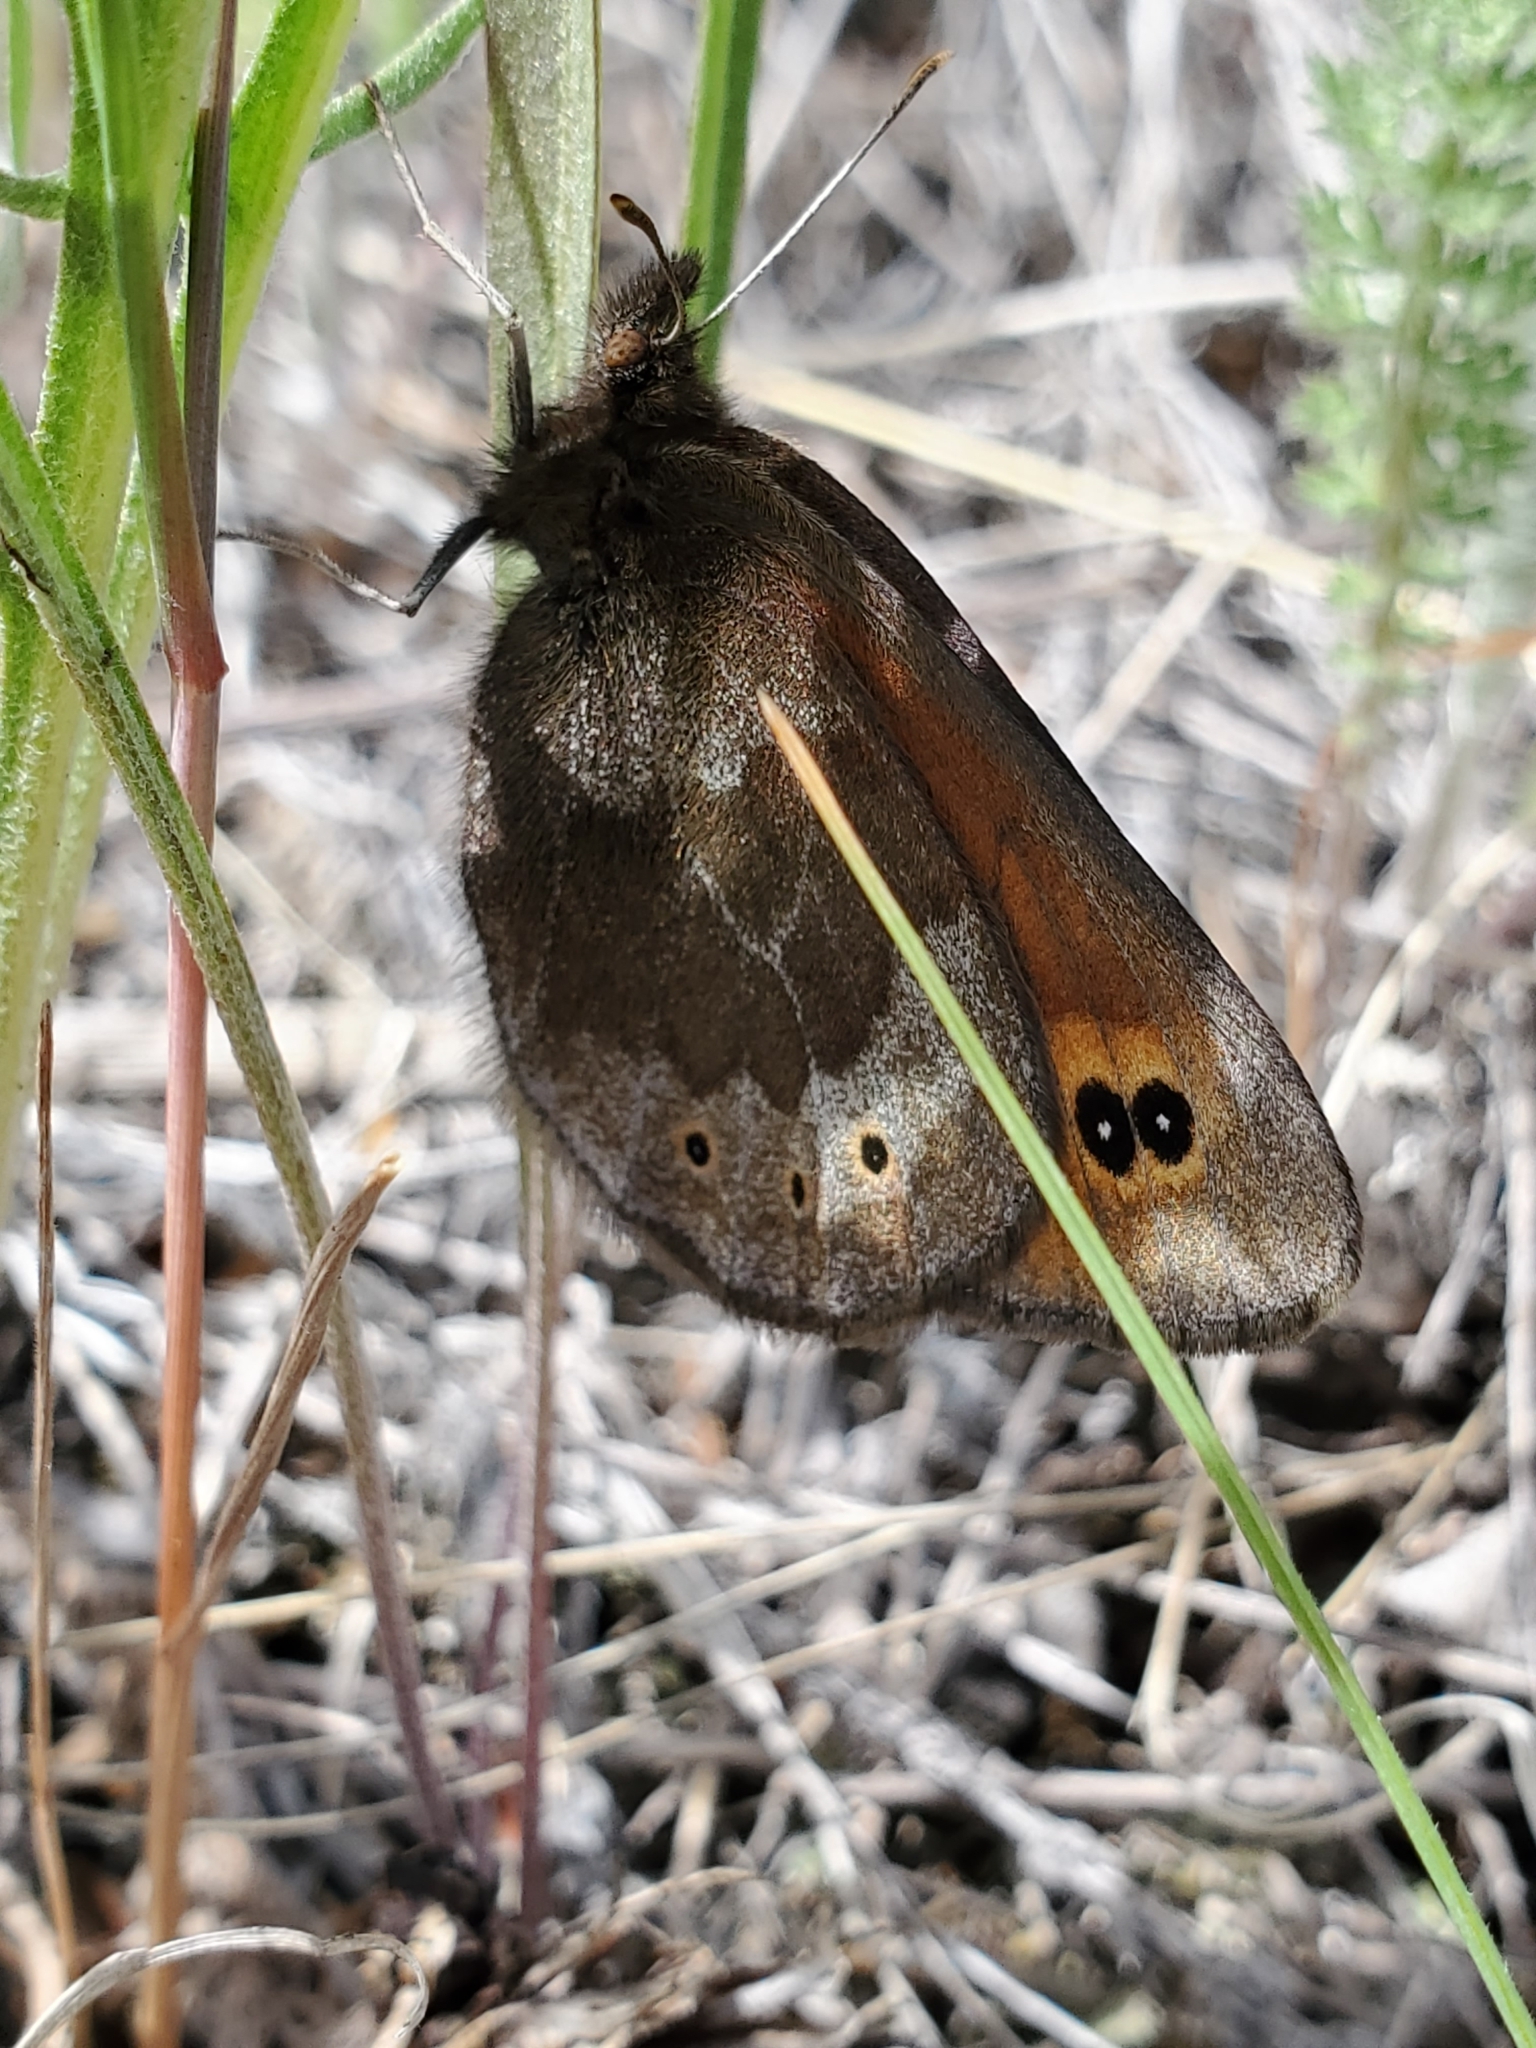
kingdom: Animalia
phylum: Arthropoda
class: Insecta
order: Lepidoptera
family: Nymphalidae
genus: Erebia
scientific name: Erebia epipsodea
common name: Common alpine
